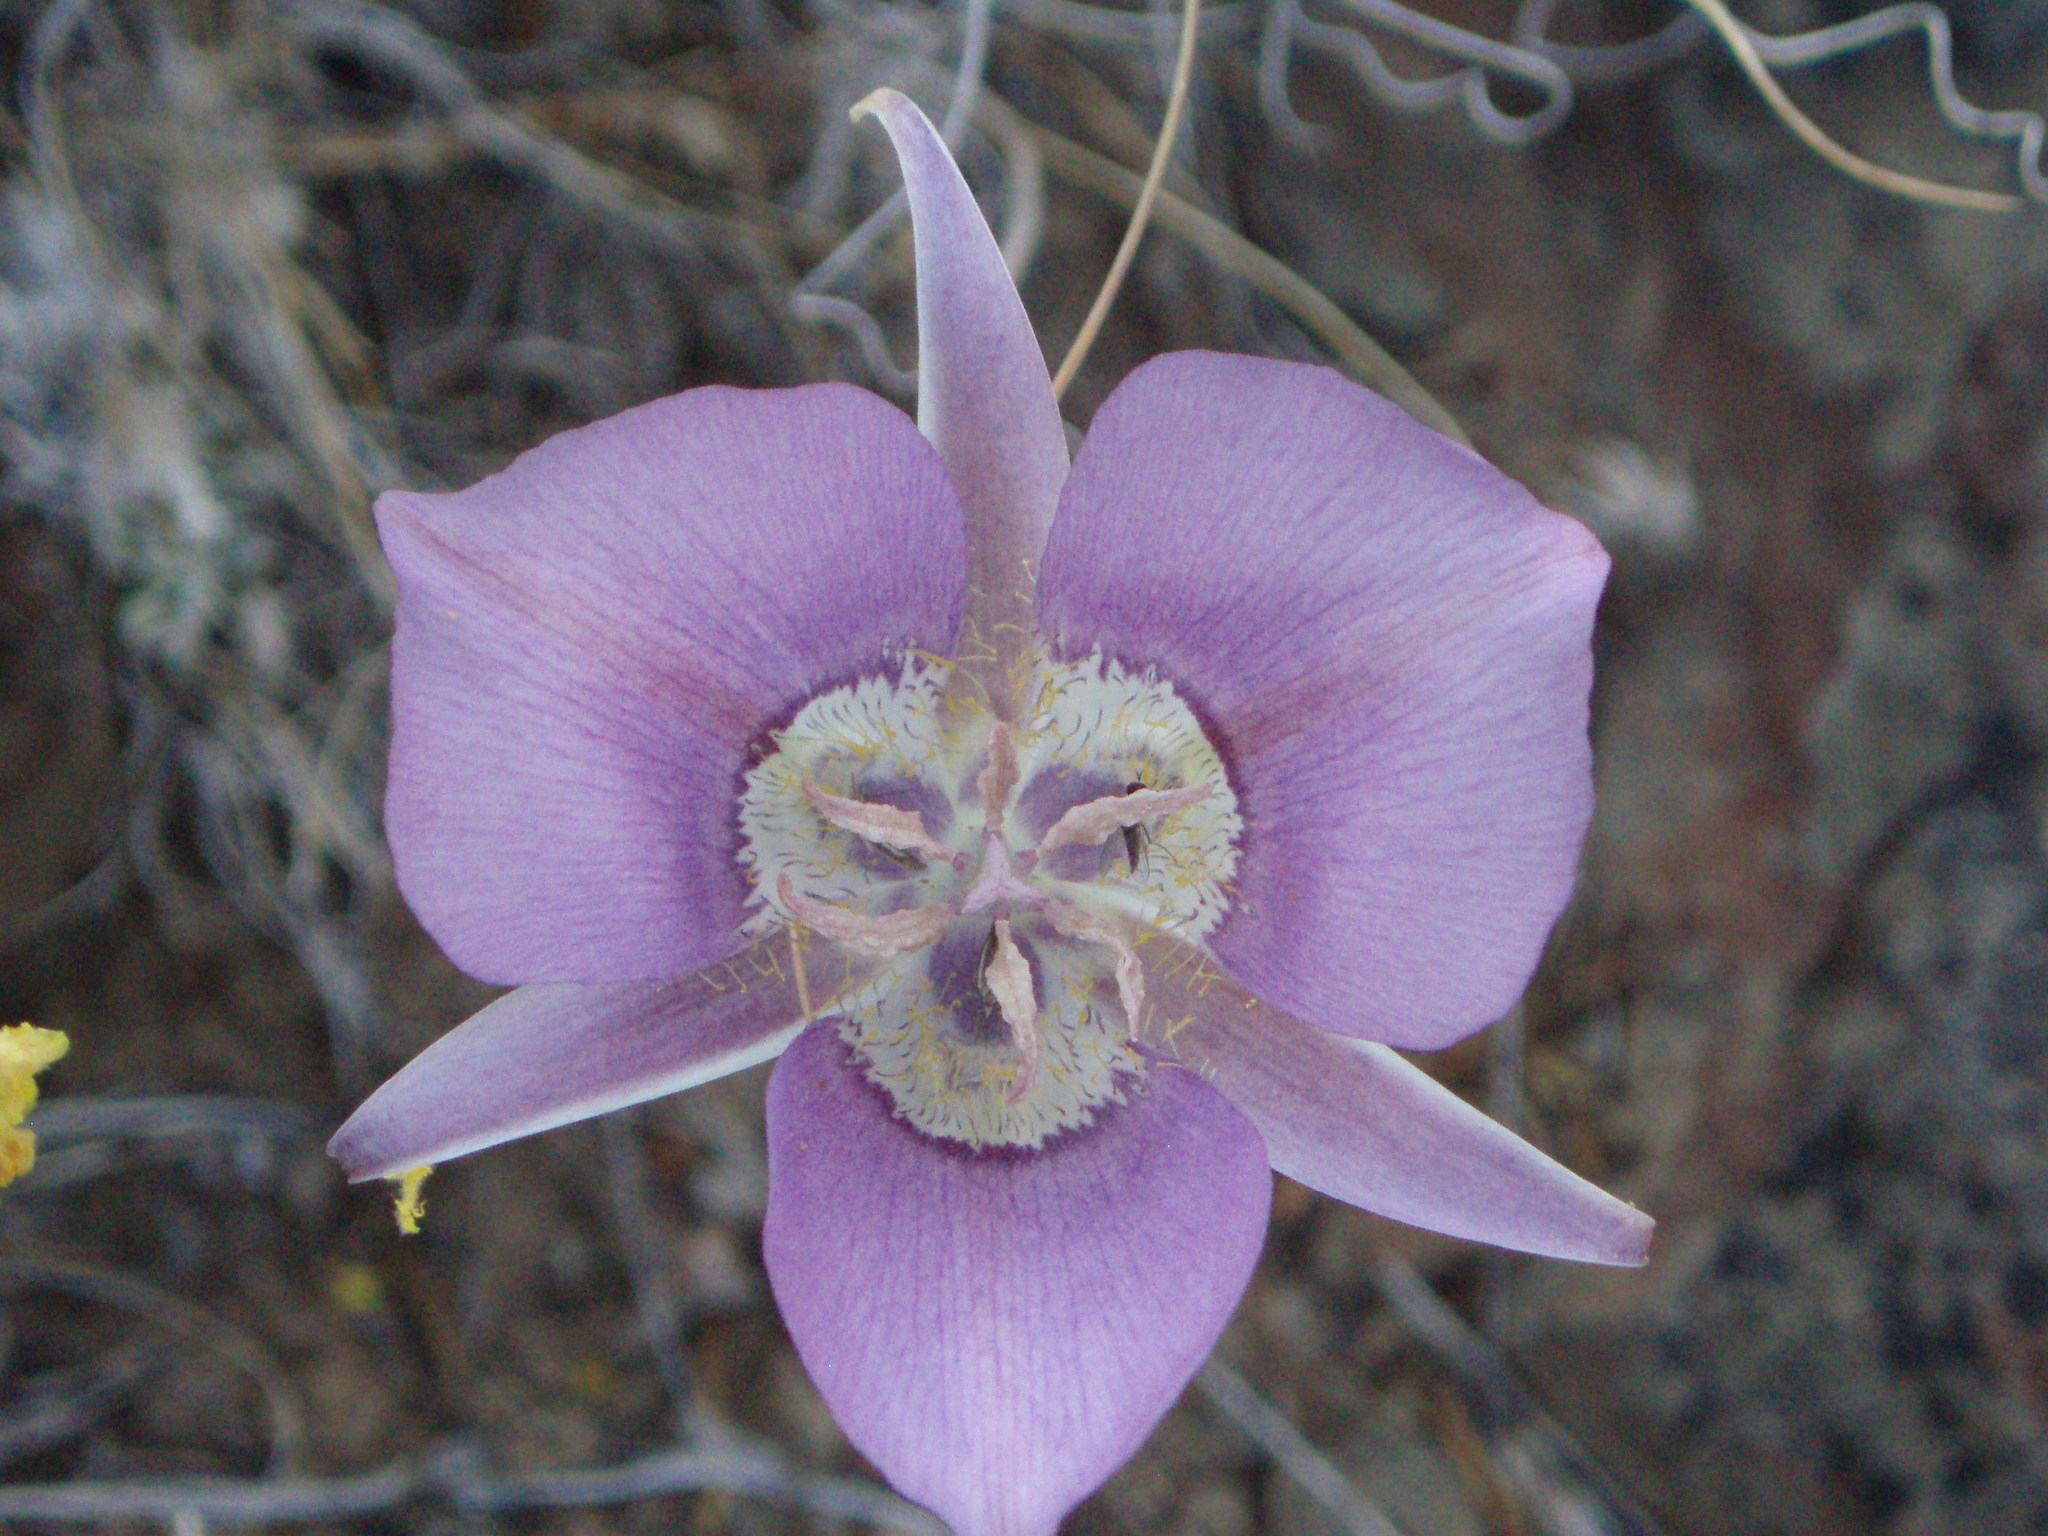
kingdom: Plantae
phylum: Tracheophyta
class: Liliopsida
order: Liliales
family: Liliaceae
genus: Calochortus
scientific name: Calochortus macrocarpus
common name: Green-band mariposa lily
